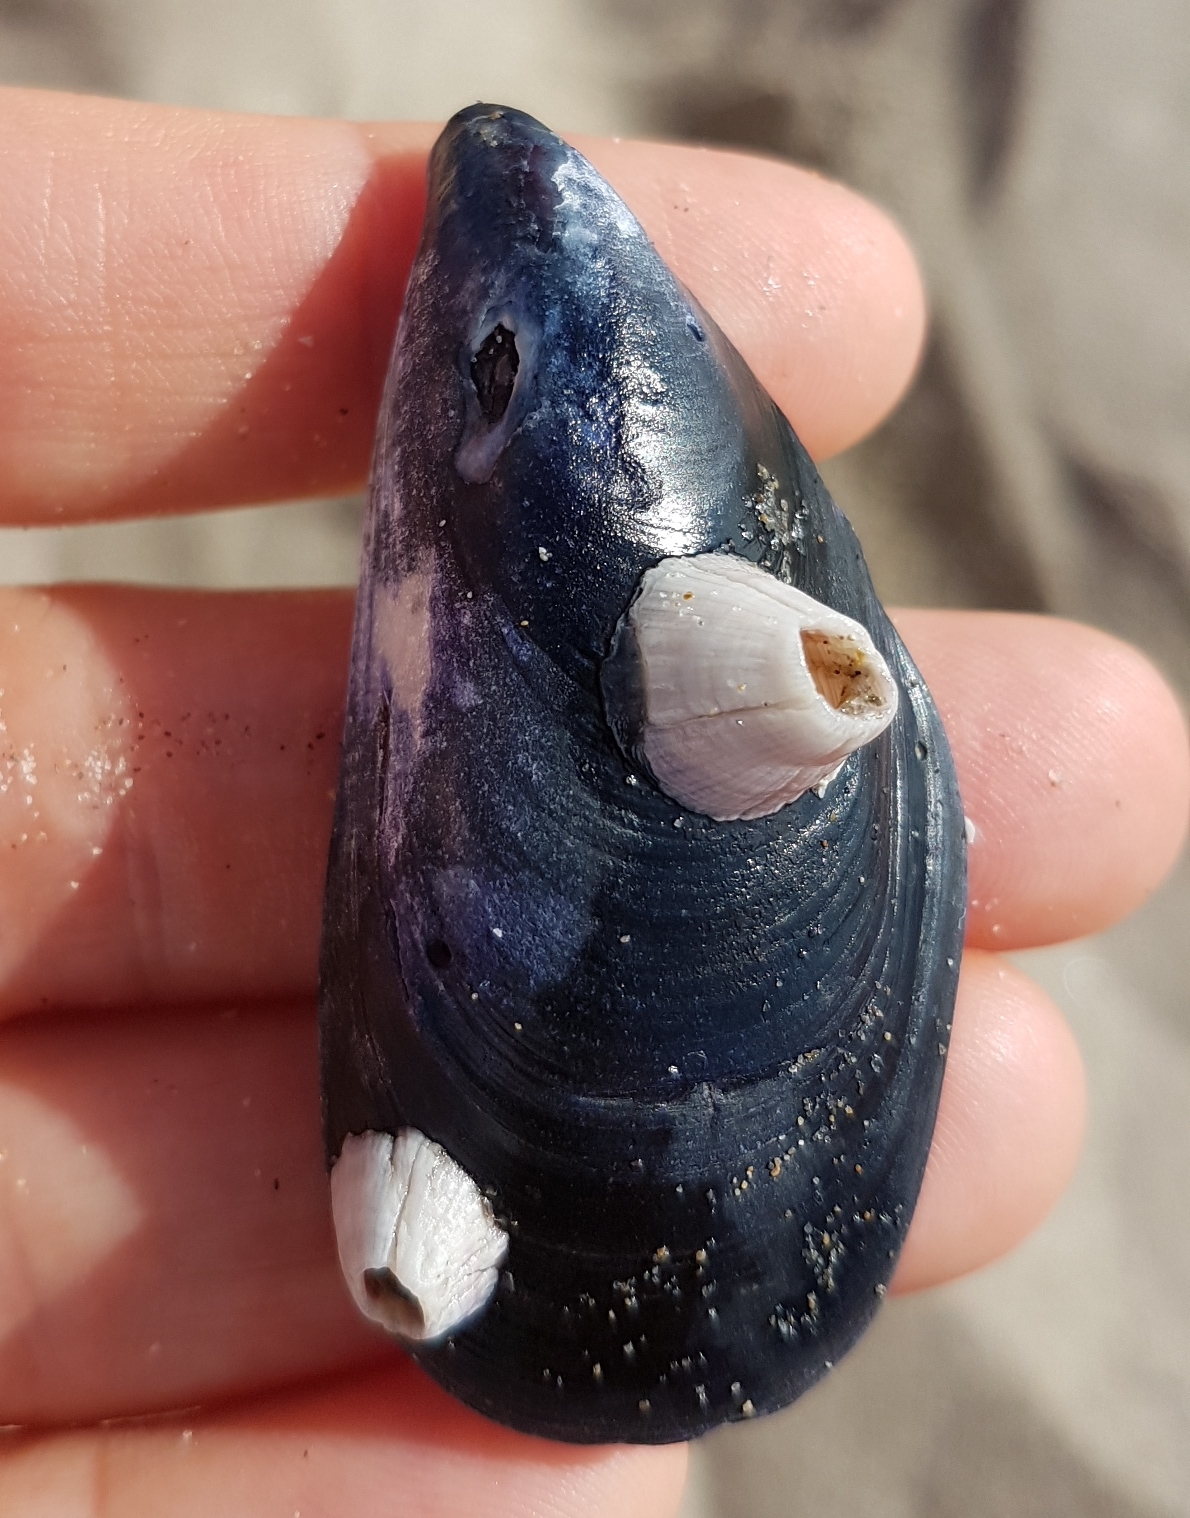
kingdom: Animalia
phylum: Arthropoda
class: Maxillopoda
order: Sessilia
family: Balanidae
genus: Perforatus
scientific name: Perforatus perforatus
